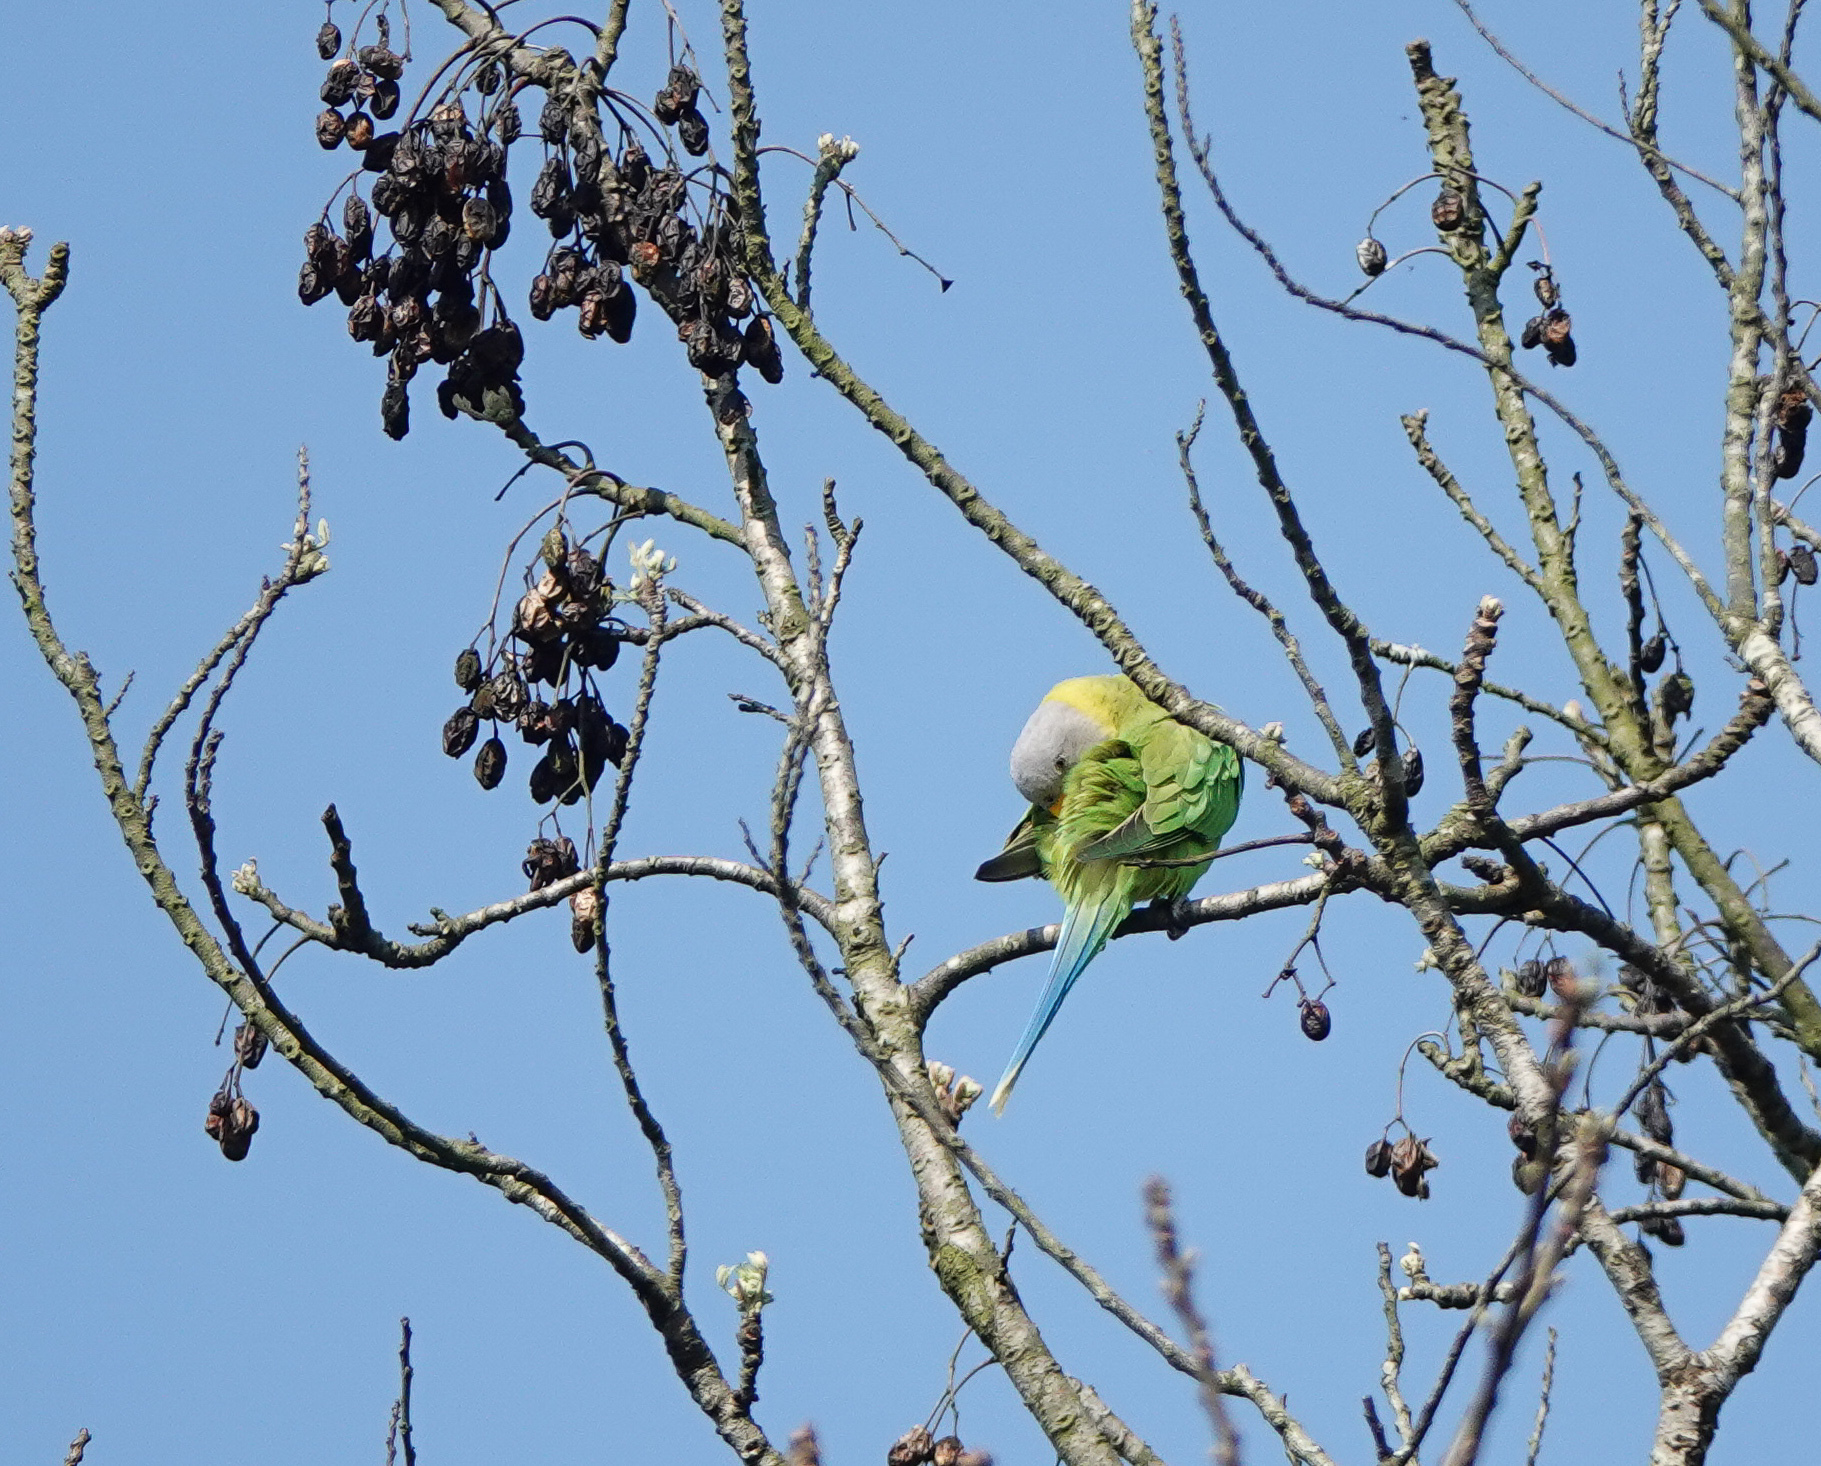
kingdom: Animalia
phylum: Chordata
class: Aves
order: Psittaciformes
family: Psittacidae
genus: Psittacula
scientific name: Psittacula roseata
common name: Blossom-headed parakeet
